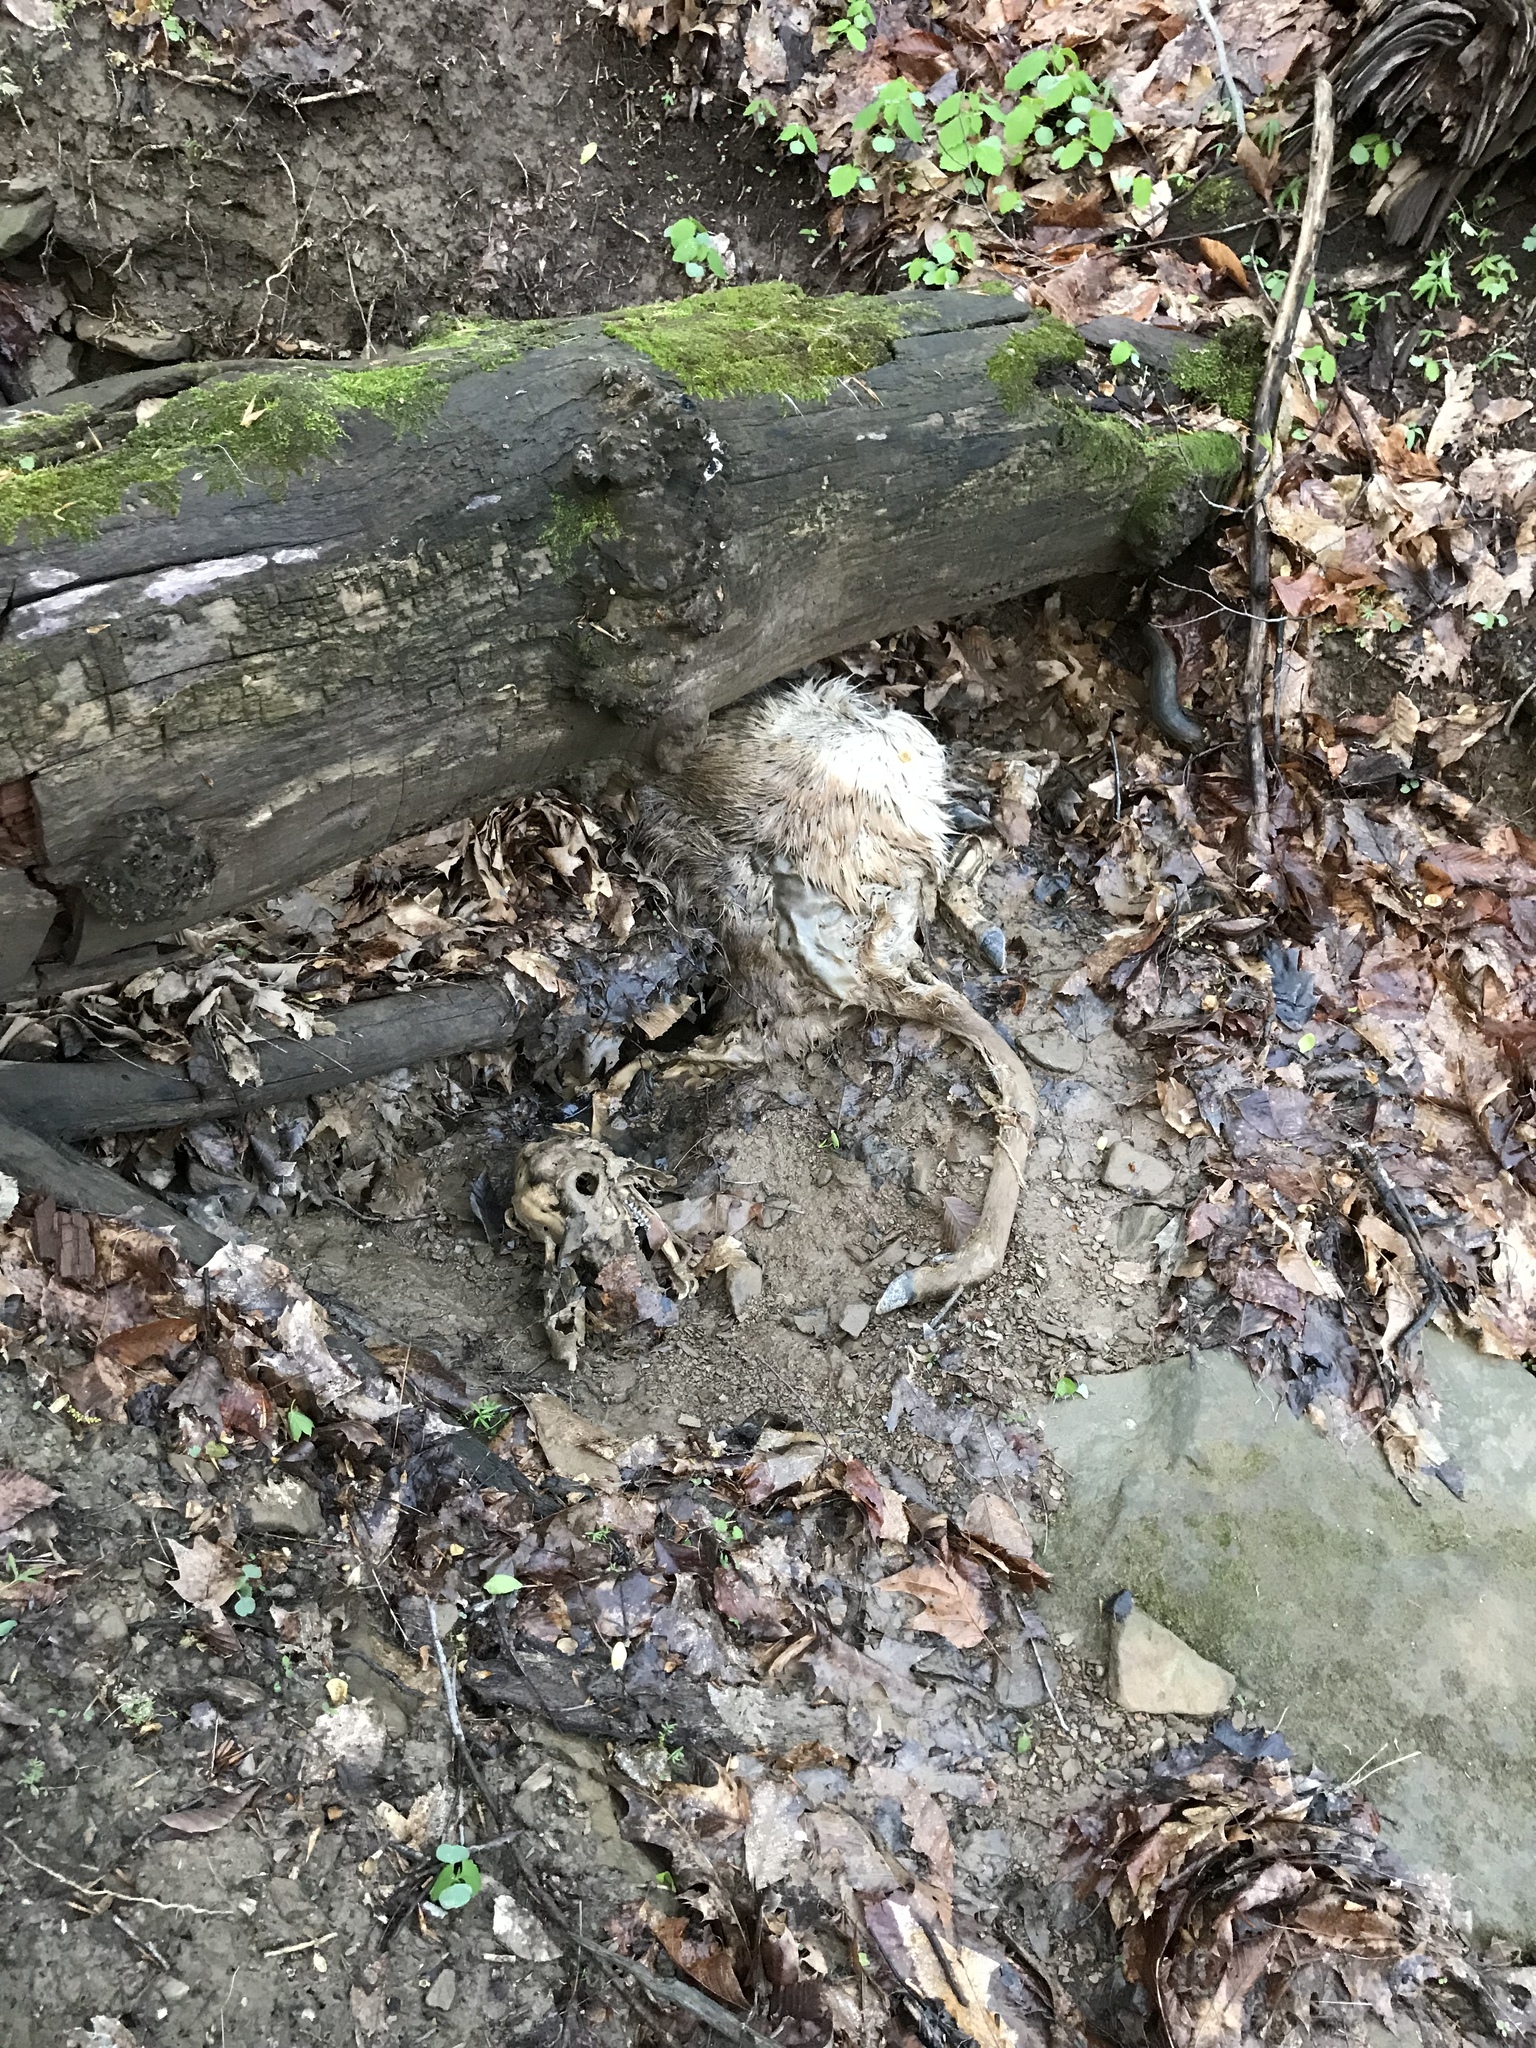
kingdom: Animalia
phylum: Chordata
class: Mammalia
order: Artiodactyla
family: Cervidae
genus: Odocoileus
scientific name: Odocoileus virginianus
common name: White-tailed deer
